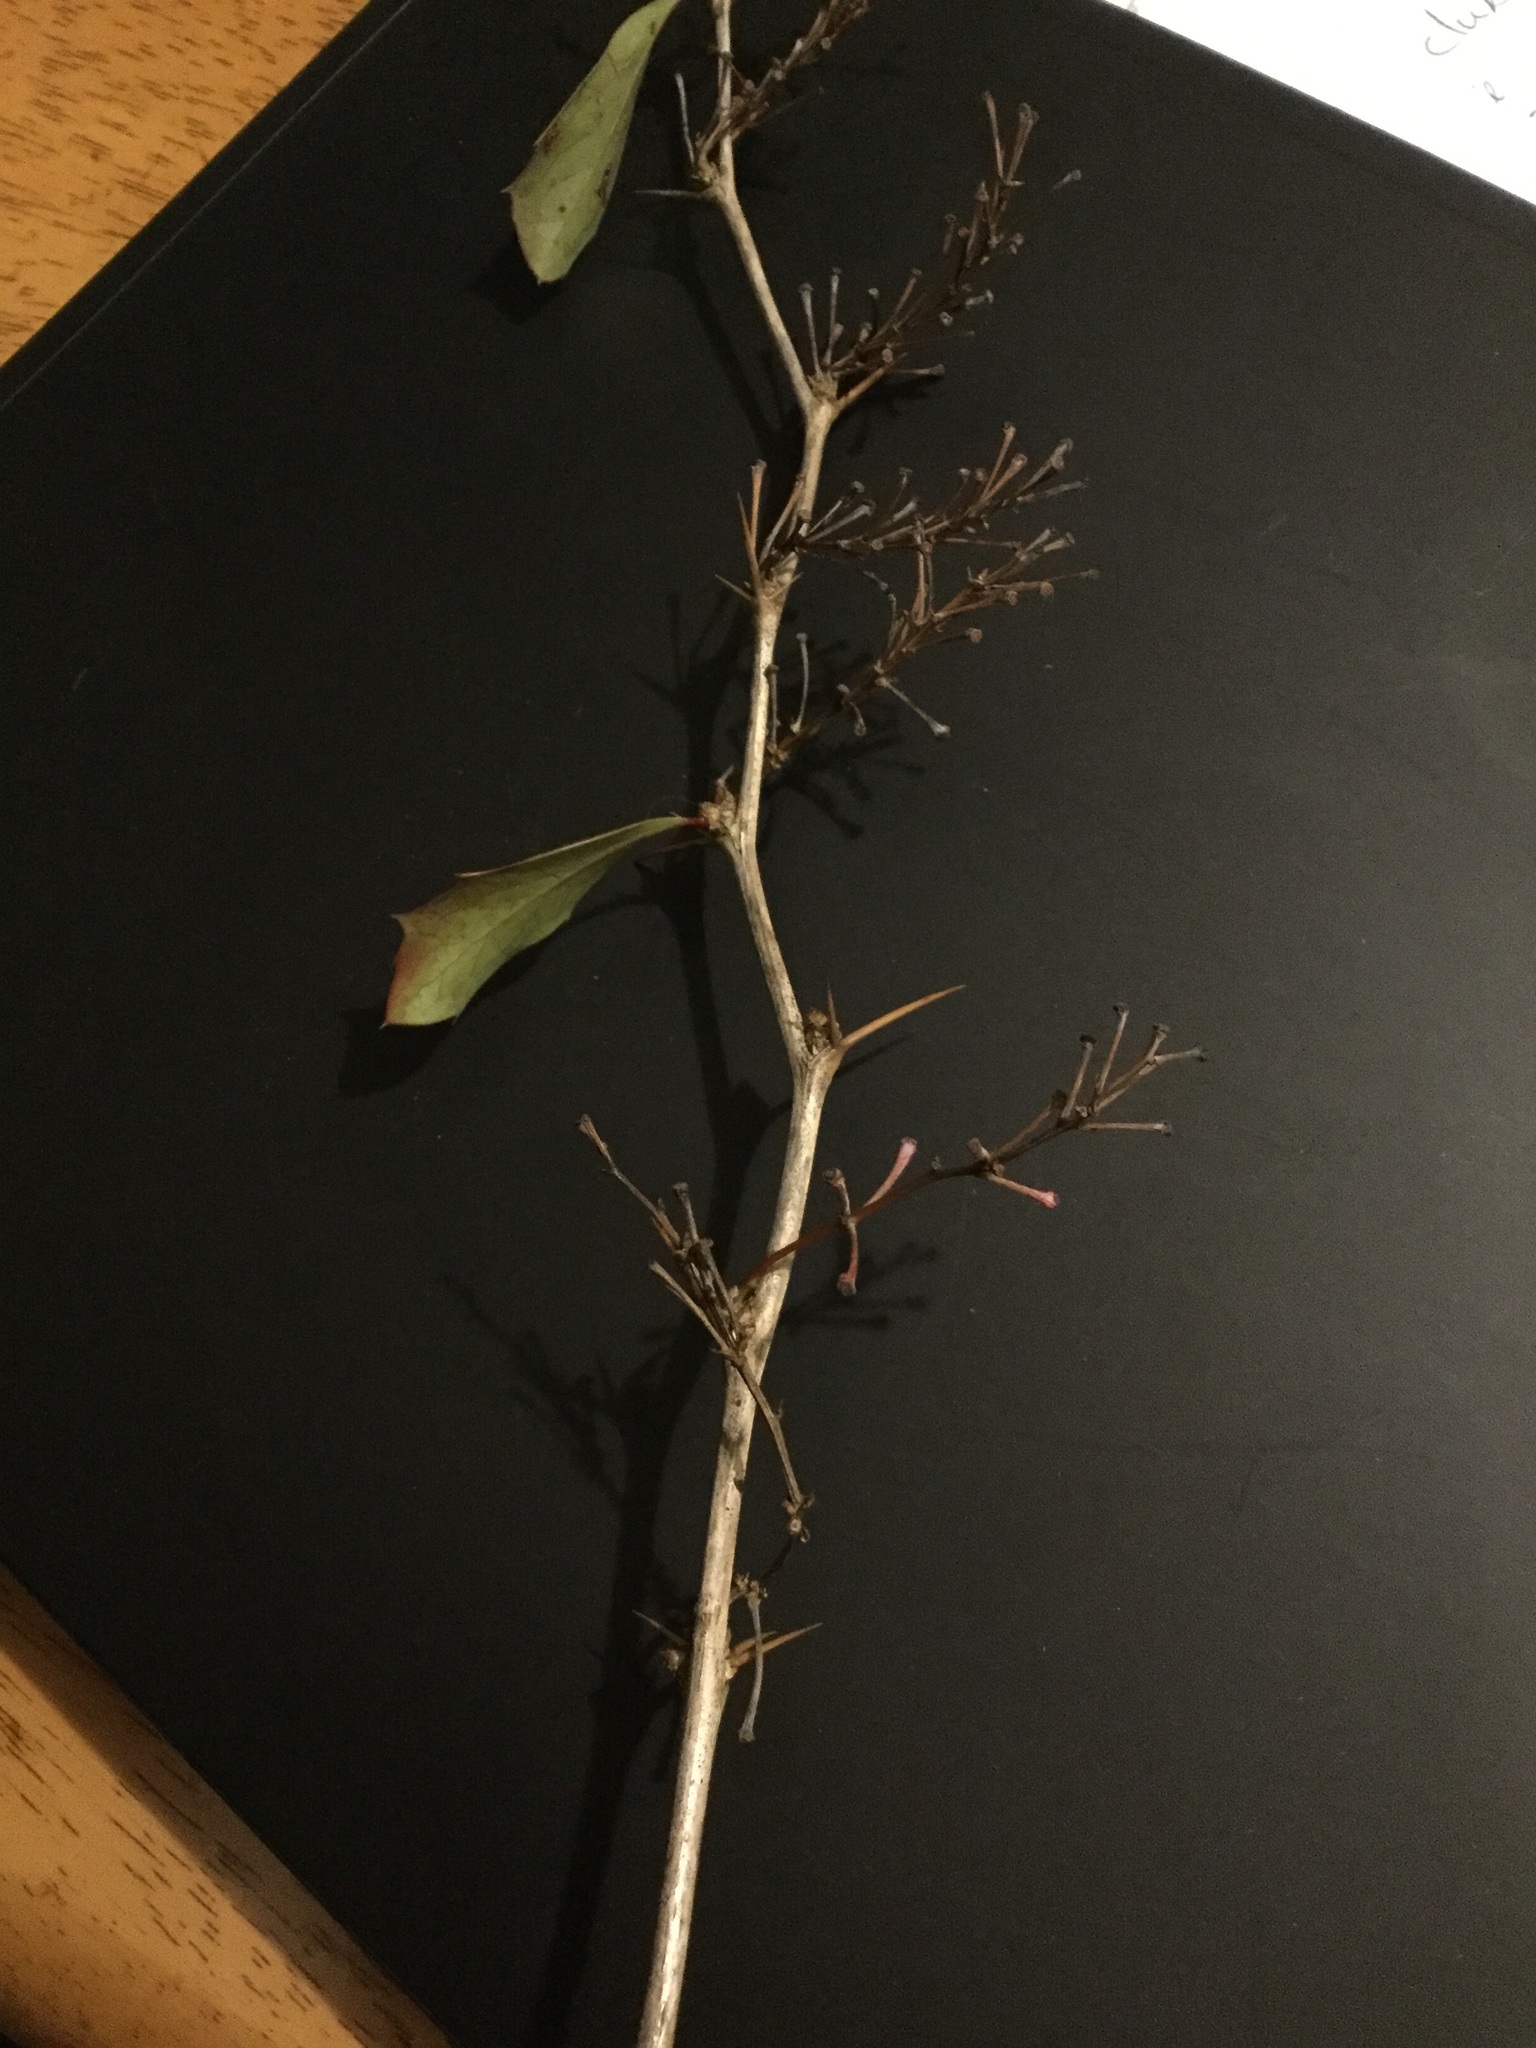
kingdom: Plantae
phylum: Tracheophyta
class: Magnoliopsida
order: Ranunculales
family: Berberidaceae
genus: Berberis
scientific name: Berberis glaucocarpa
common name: Great barberry
